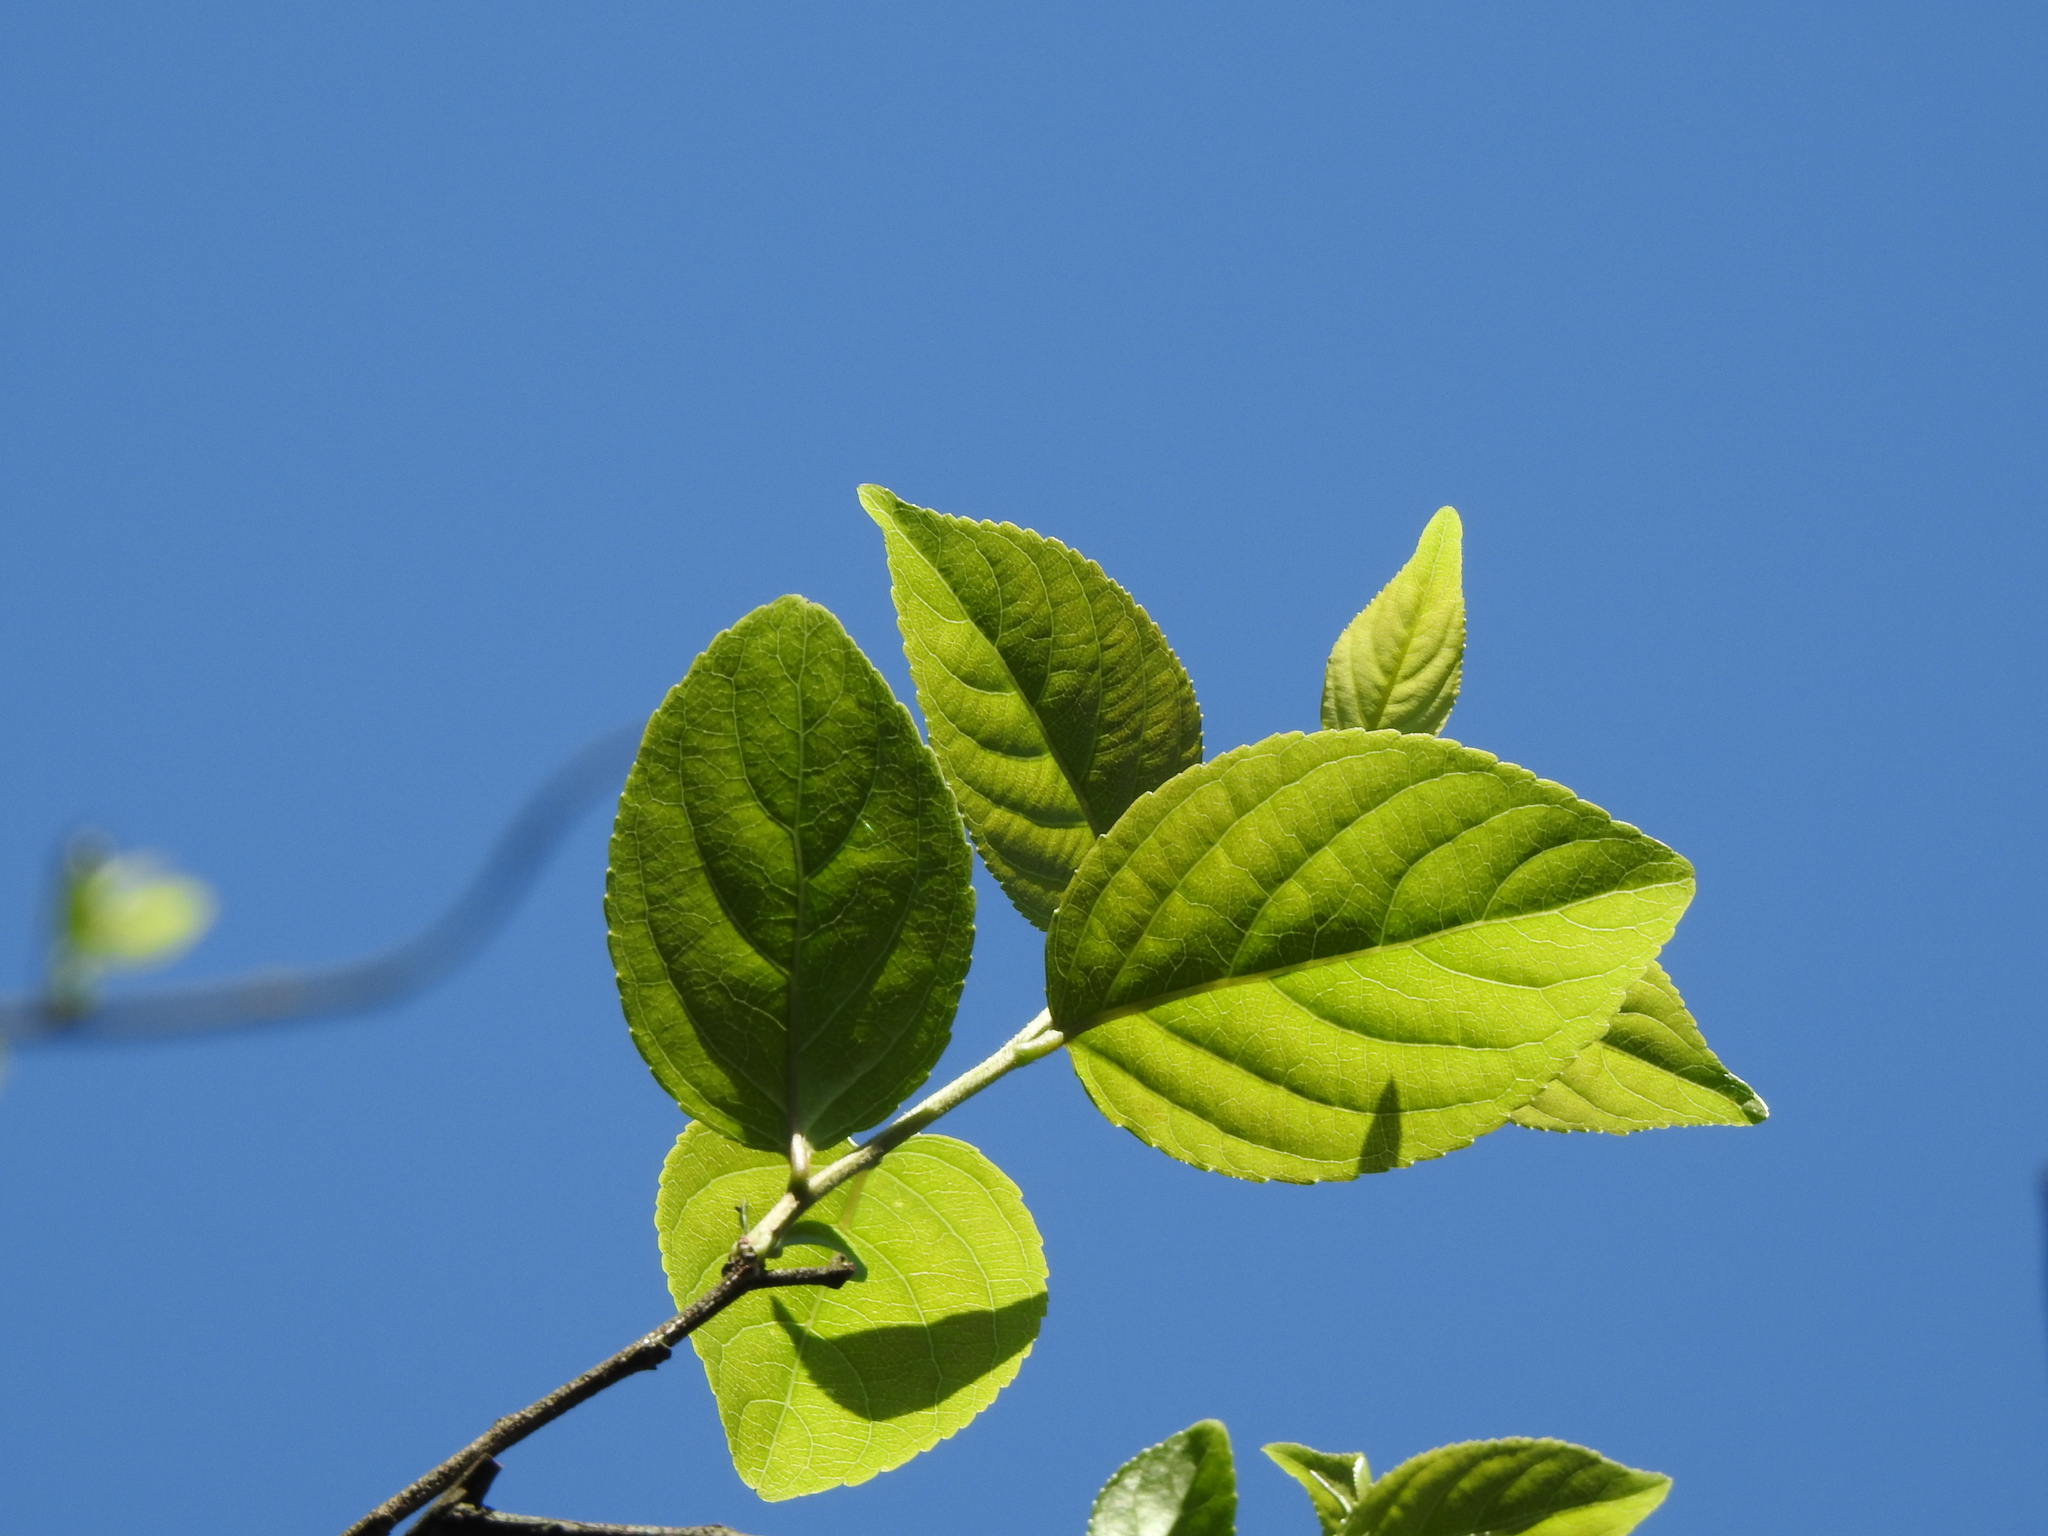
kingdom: Plantae
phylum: Tracheophyta
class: Magnoliopsida
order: Celastrales
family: Celastraceae
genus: Tripterygium
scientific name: Tripterygium wilfordii
